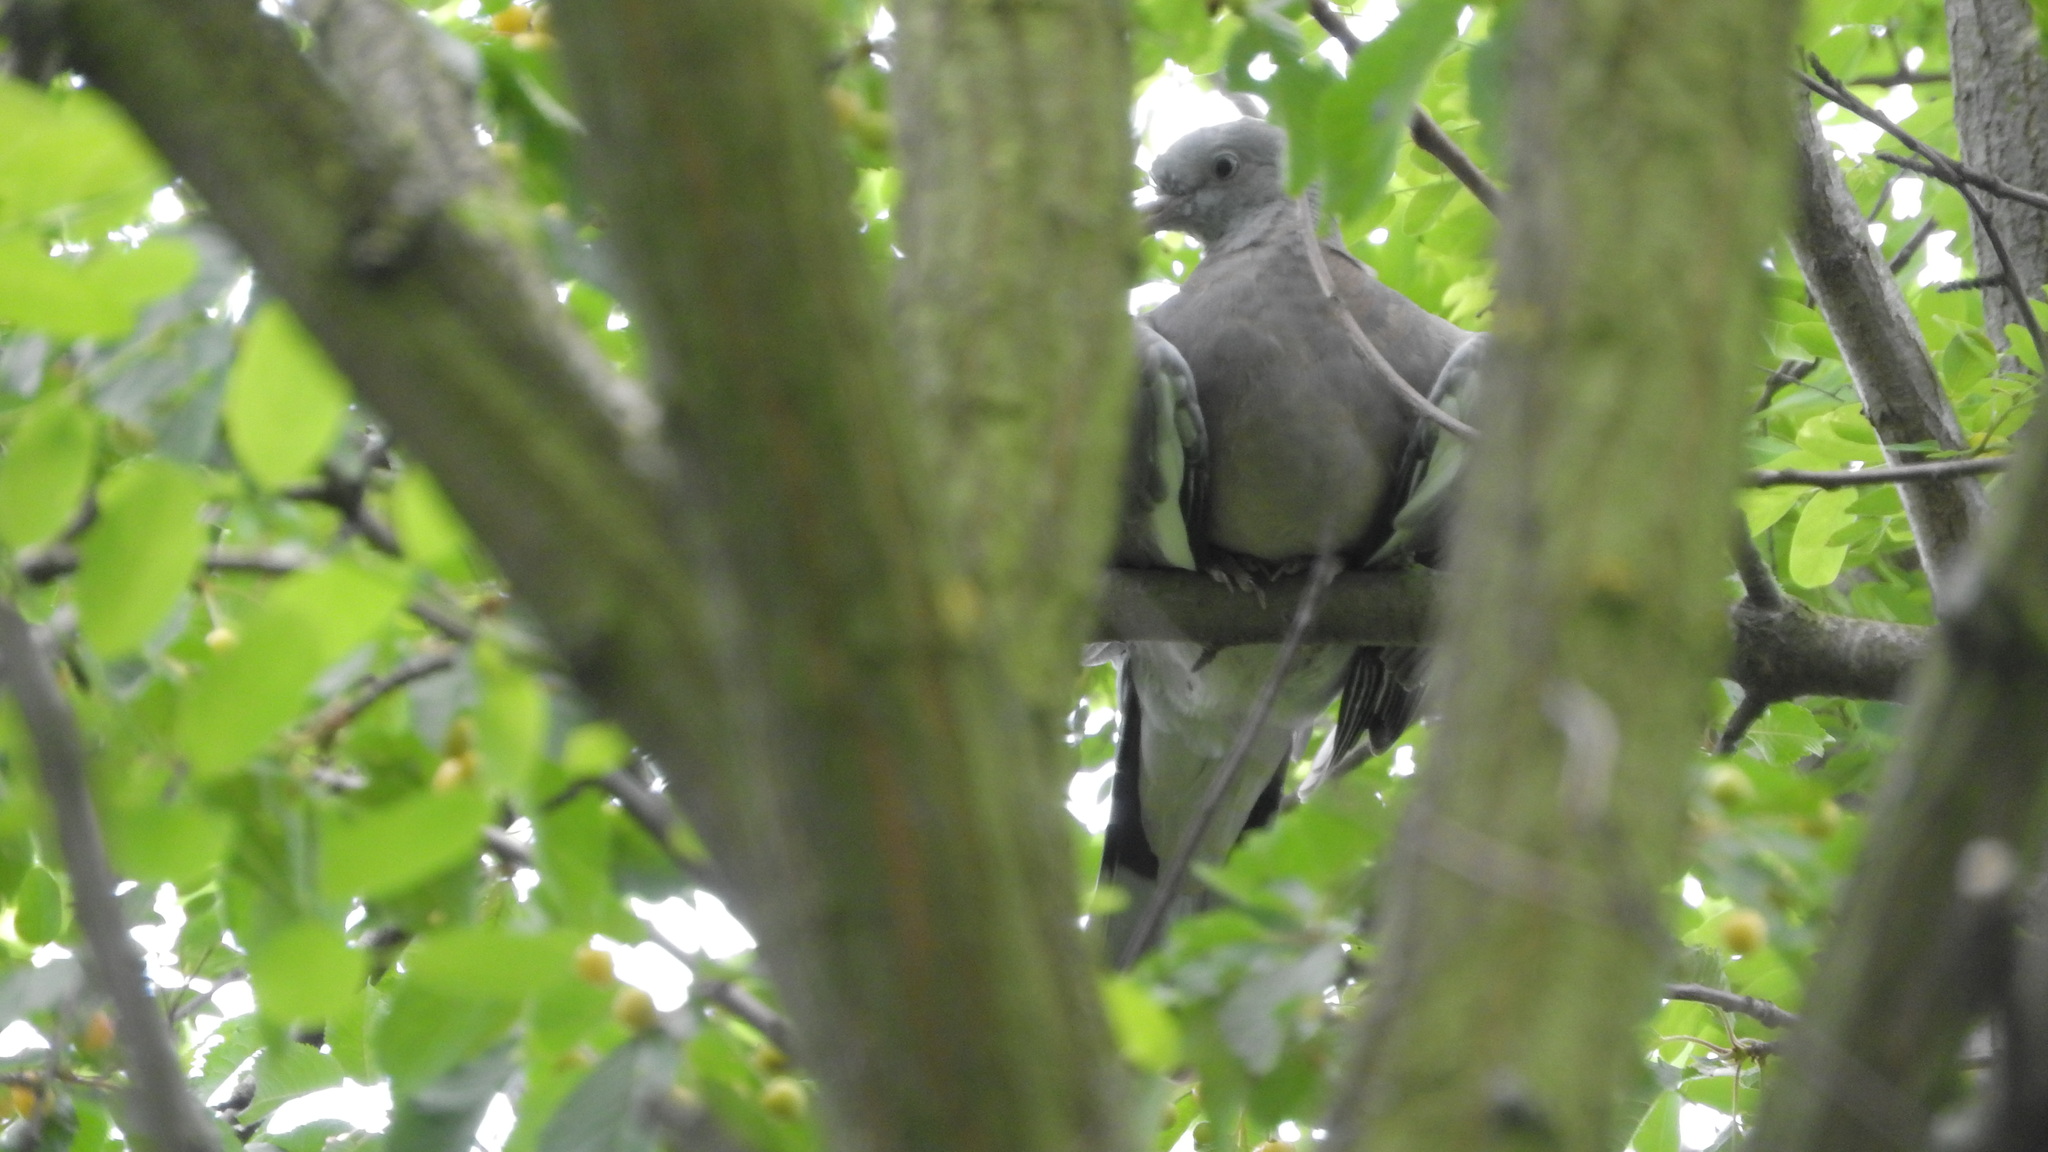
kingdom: Animalia
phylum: Chordata
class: Aves
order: Columbiformes
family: Columbidae
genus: Columba
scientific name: Columba palumbus
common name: Common wood pigeon
